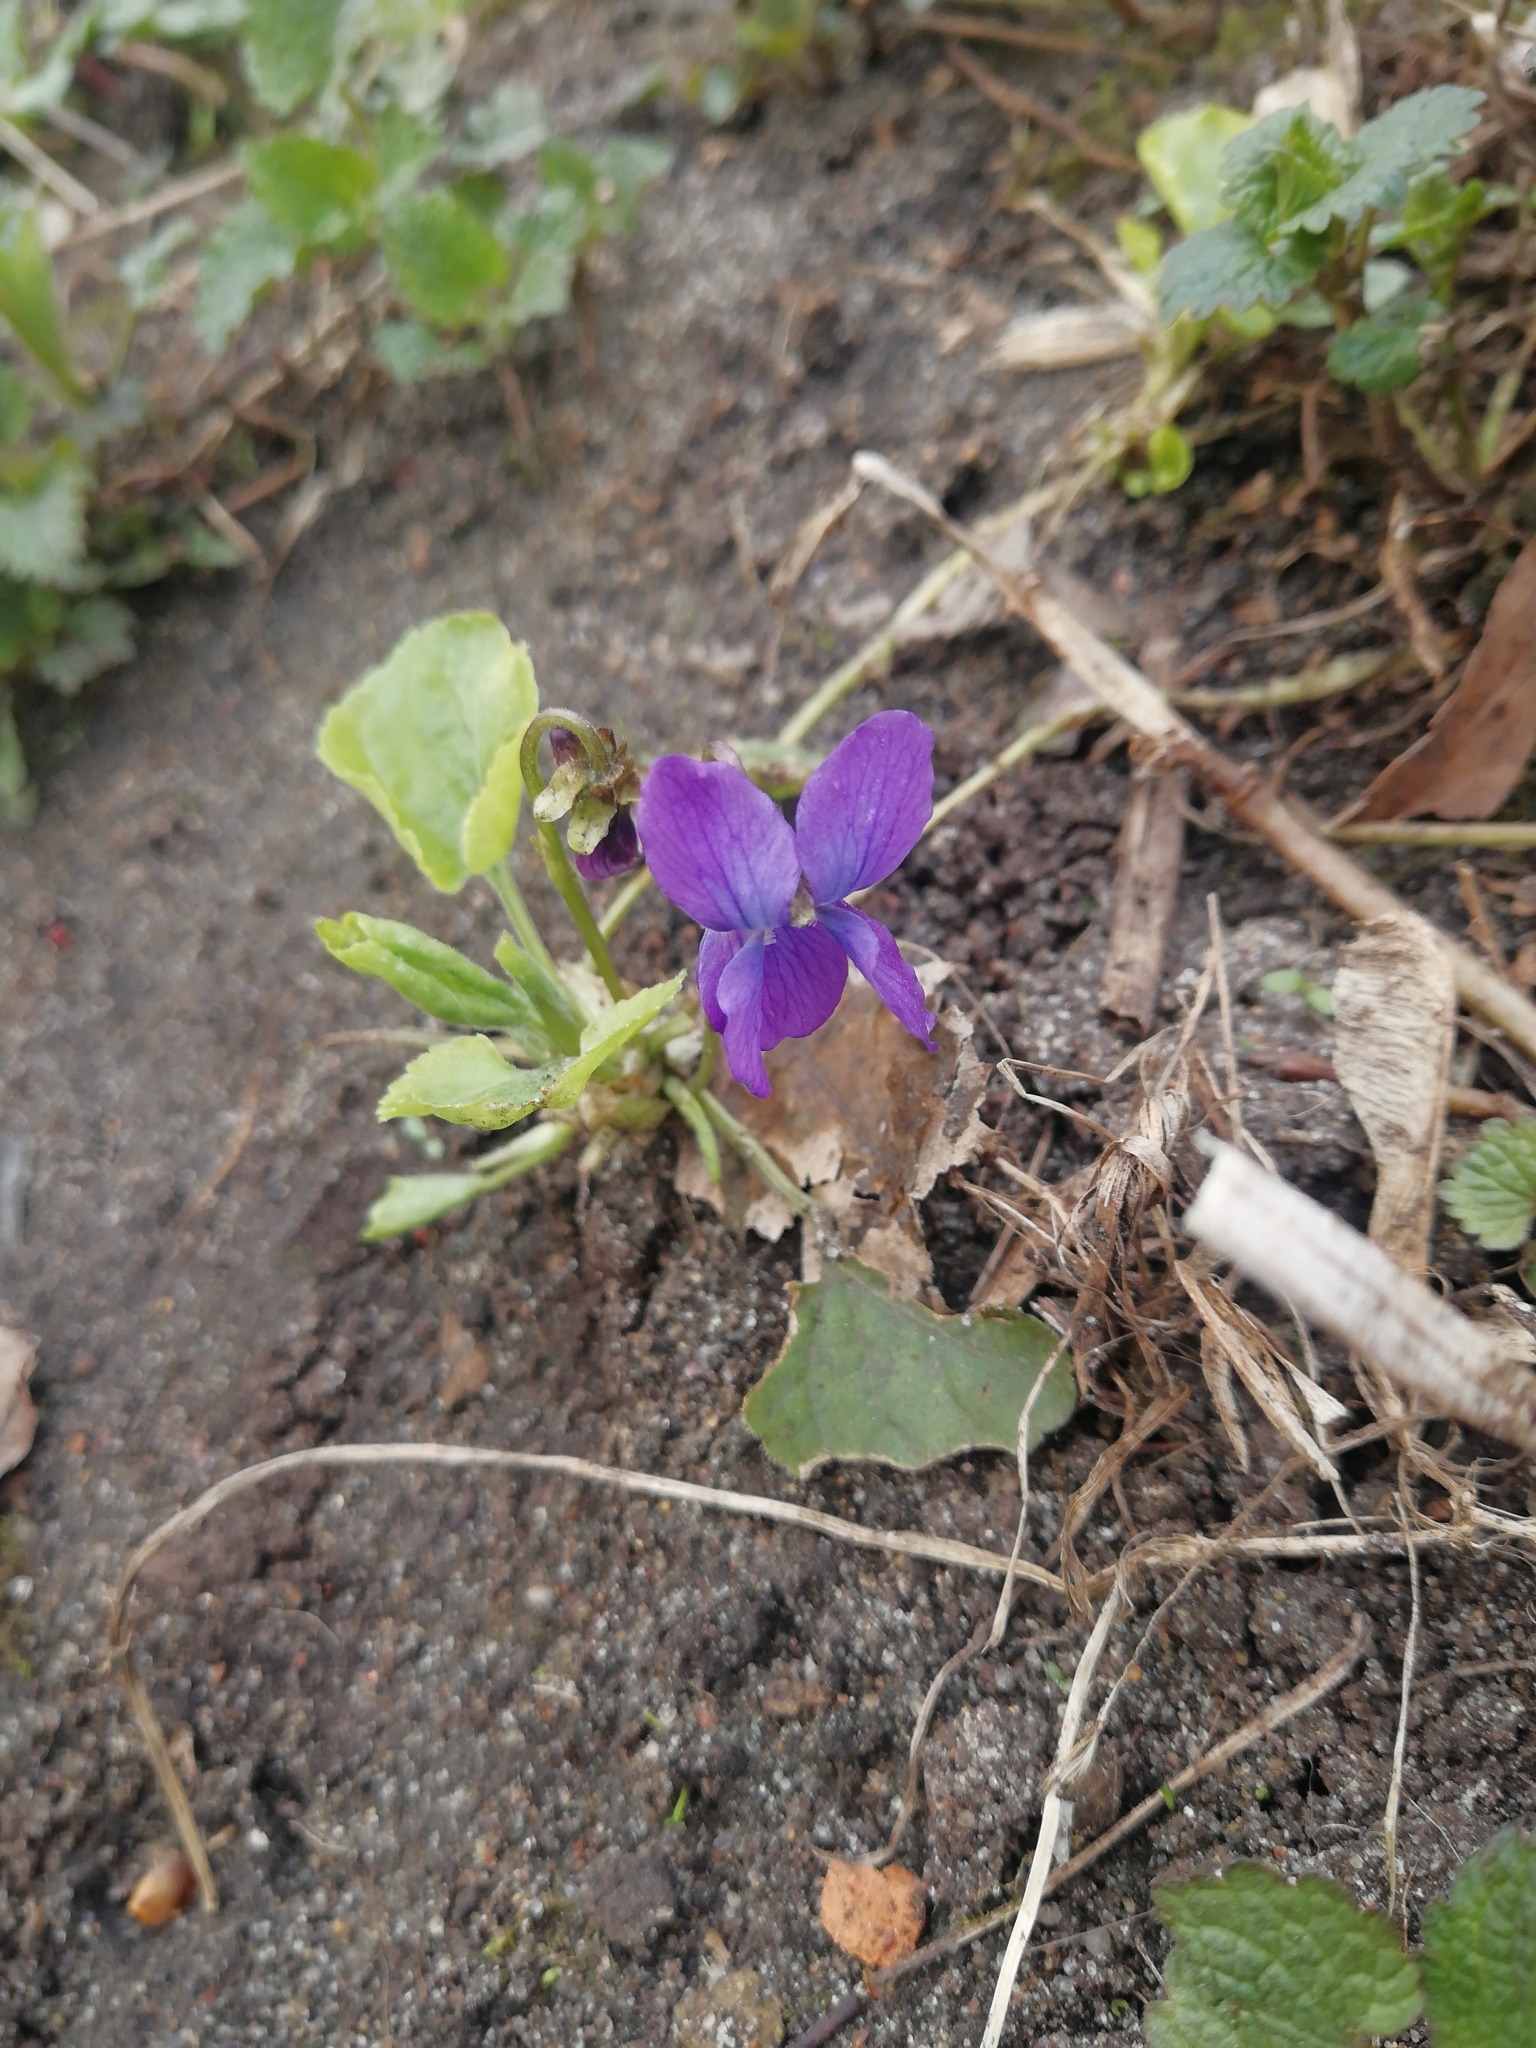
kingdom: Plantae
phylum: Tracheophyta
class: Magnoliopsida
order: Malpighiales
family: Violaceae
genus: Viola
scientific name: Viola odorata
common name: Sweet violet
